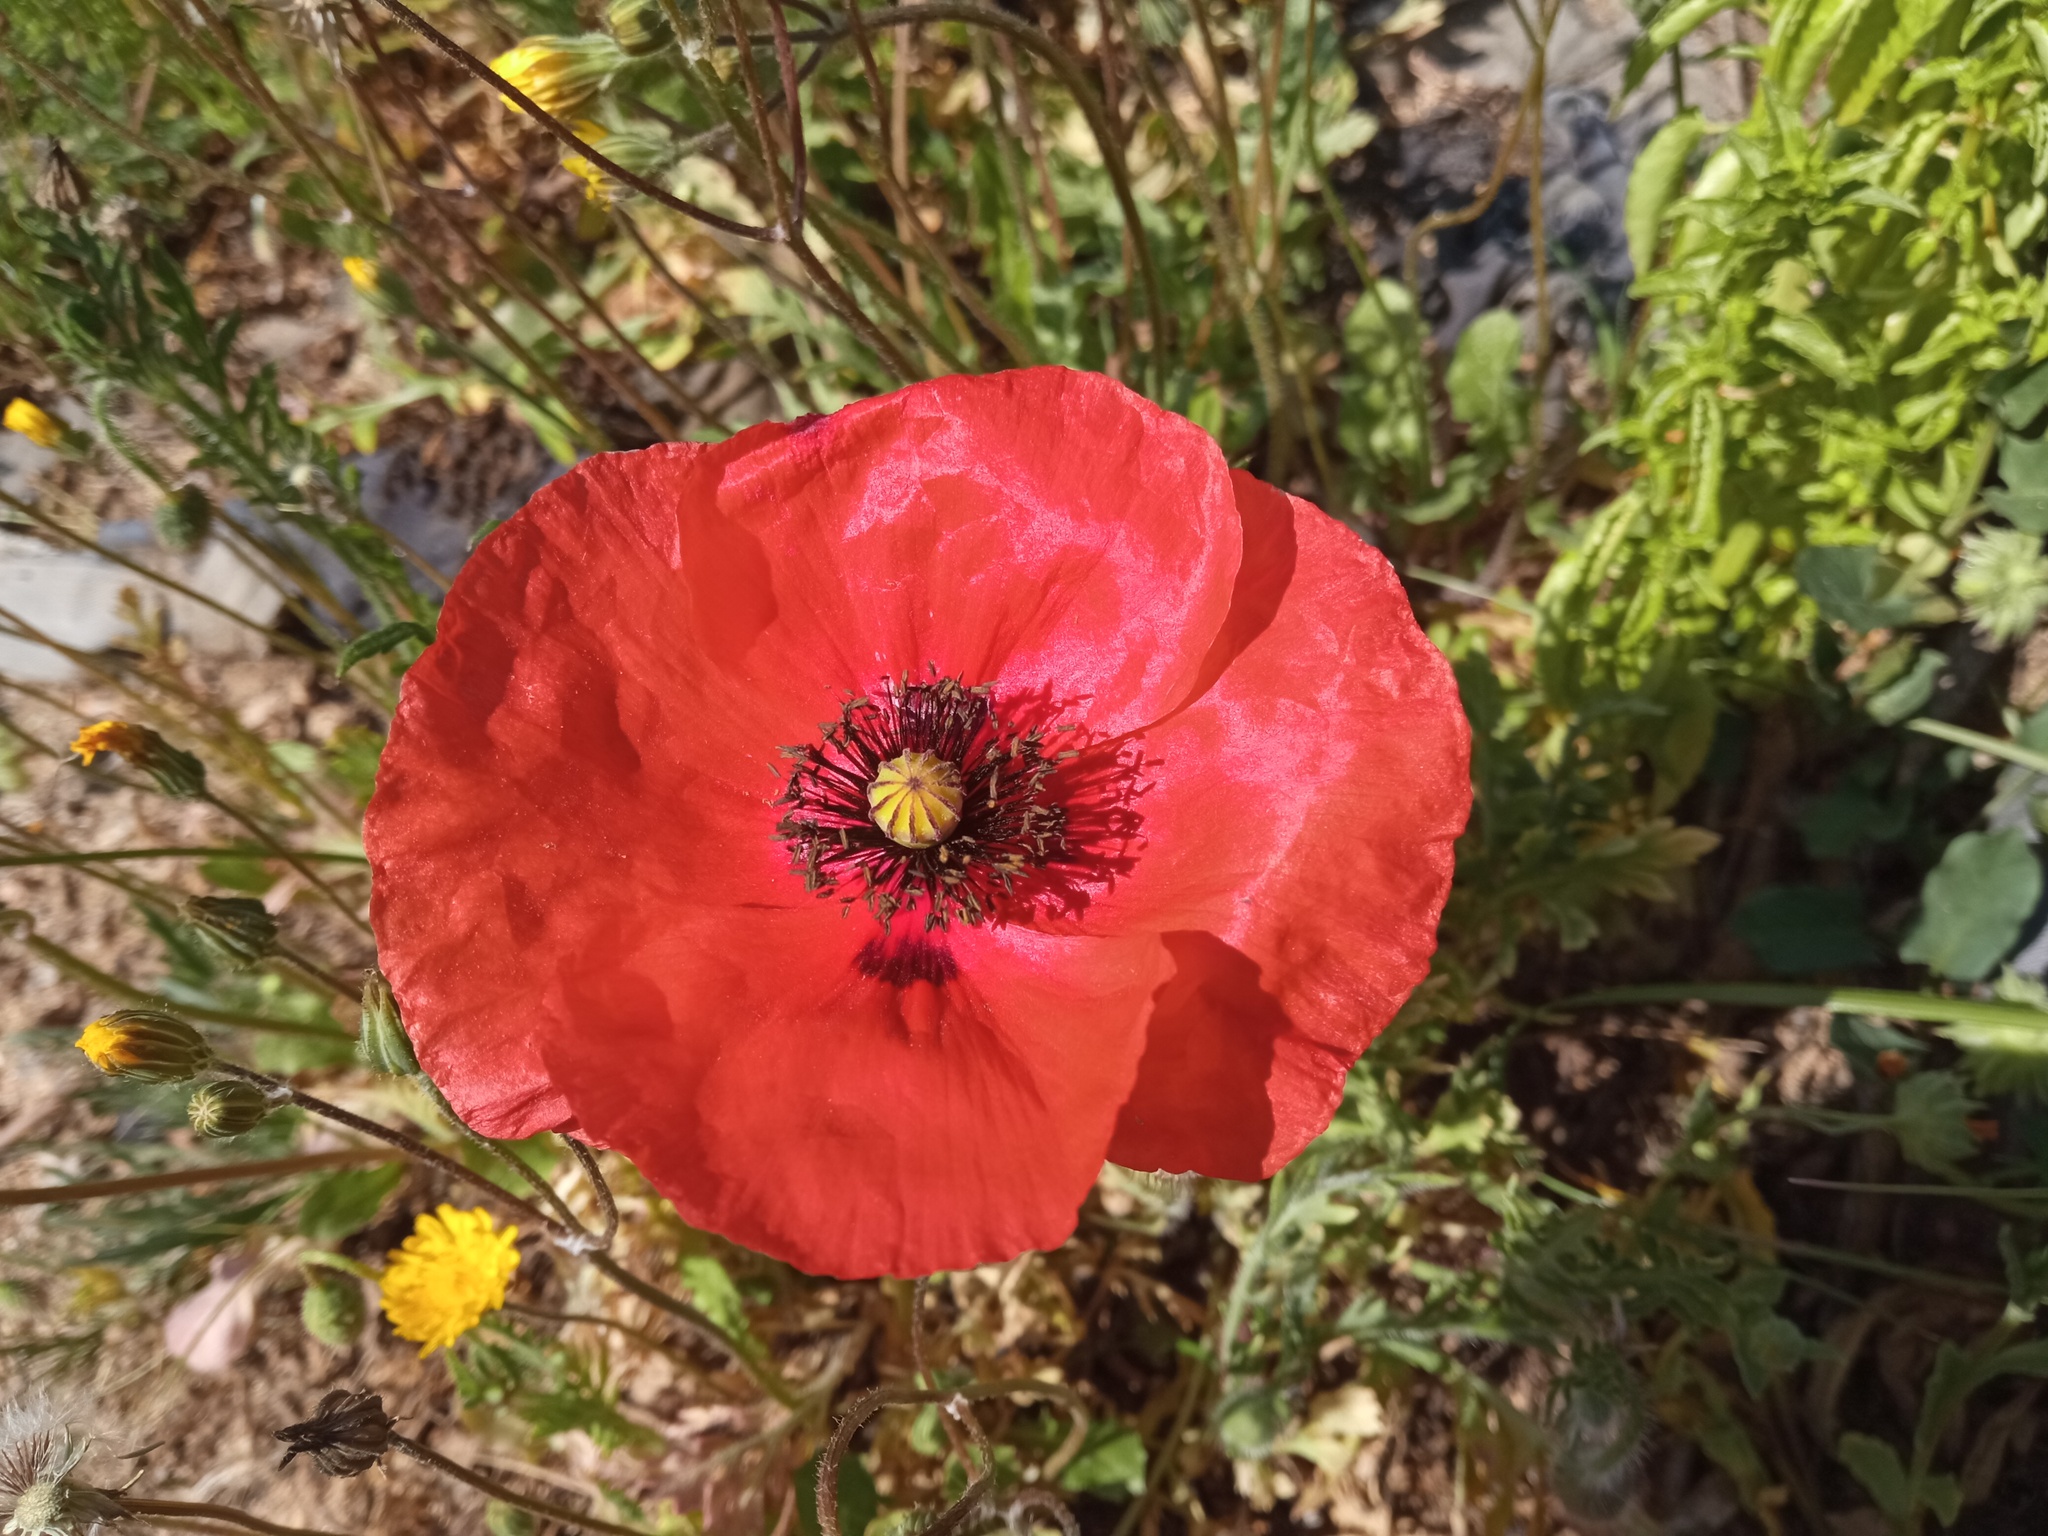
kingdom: Plantae
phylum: Tracheophyta
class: Magnoliopsida
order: Ranunculales
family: Papaveraceae
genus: Papaver
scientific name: Papaver rhoeas
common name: Corn poppy
